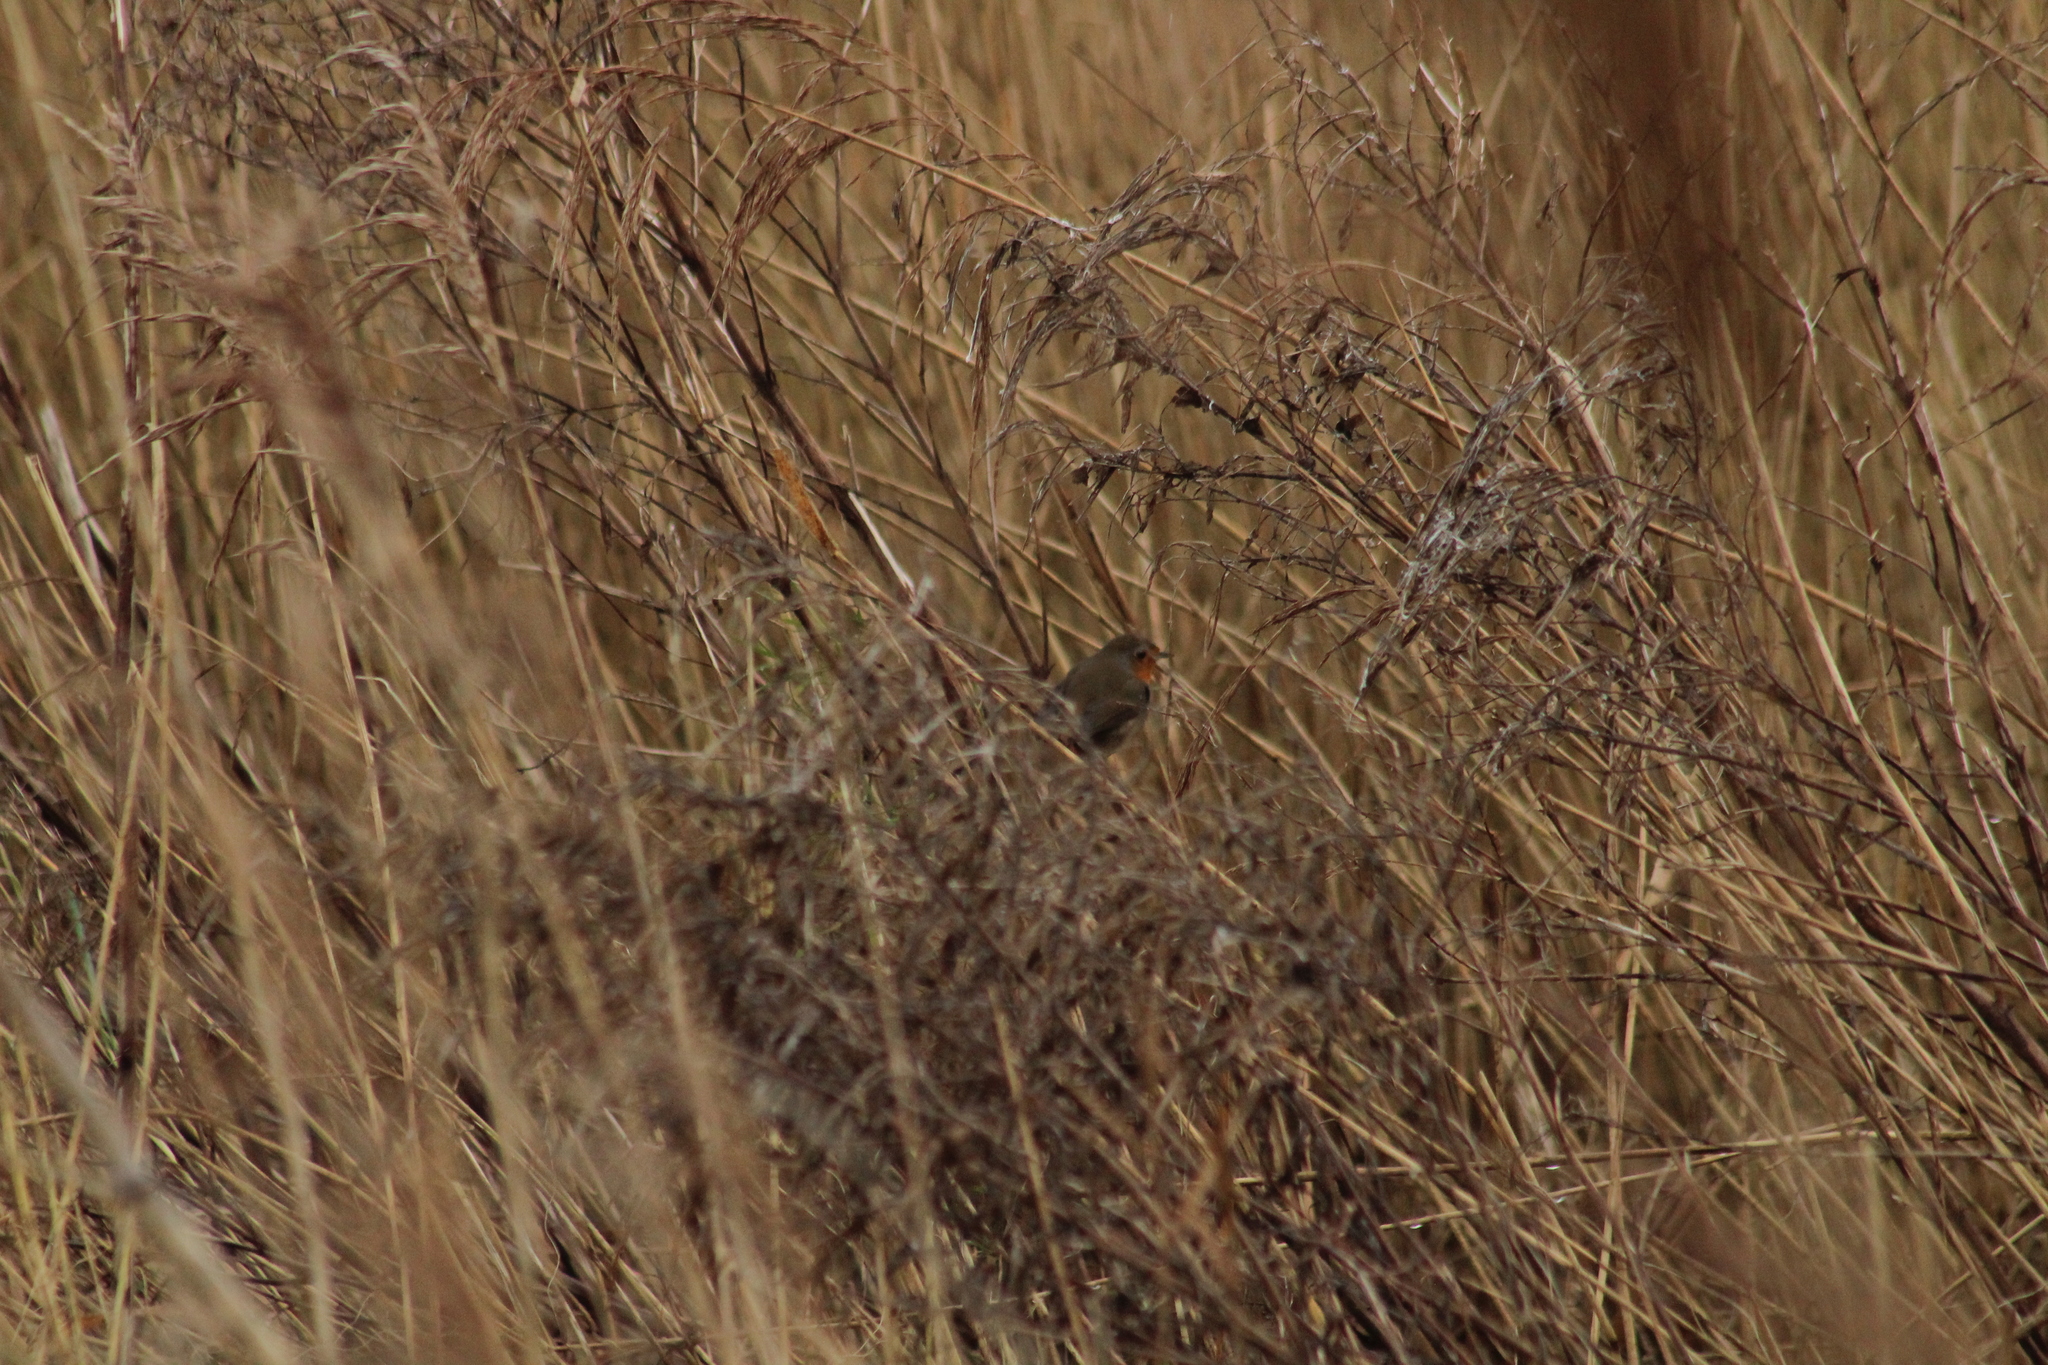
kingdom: Animalia
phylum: Chordata
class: Aves
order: Passeriformes
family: Muscicapidae
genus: Erithacus
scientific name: Erithacus rubecula
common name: European robin
